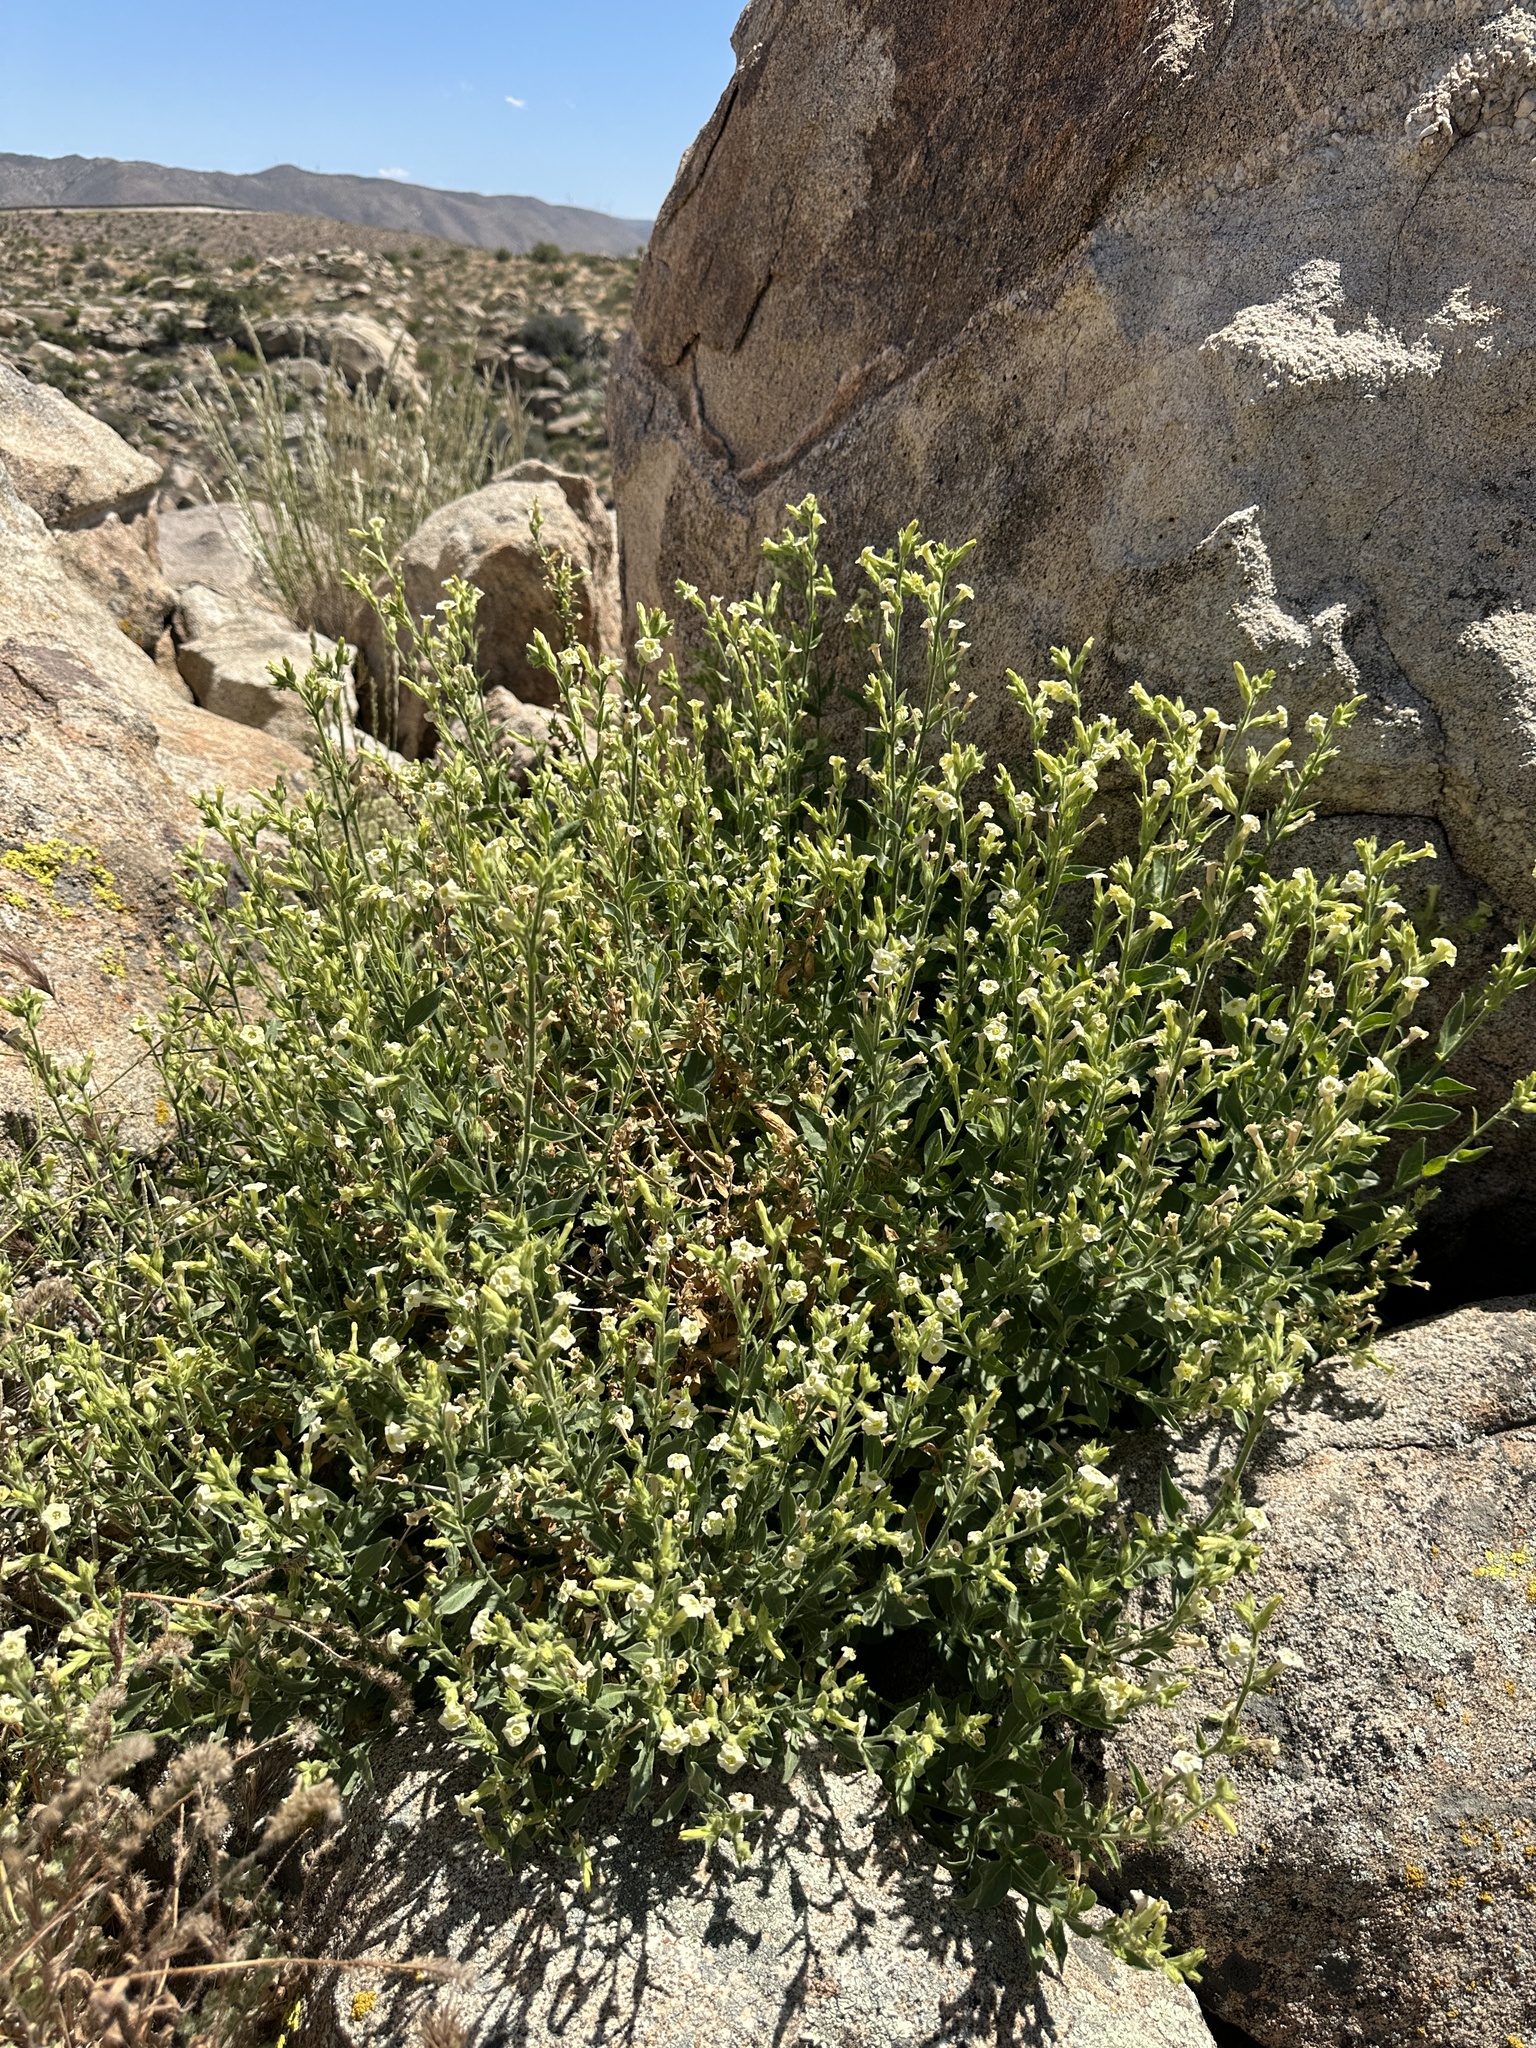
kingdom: Plantae
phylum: Tracheophyta
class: Magnoliopsida
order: Solanales
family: Solanaceae
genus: Nicotiana
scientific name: Nicotiana obtusifolia
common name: Desert tobacco
